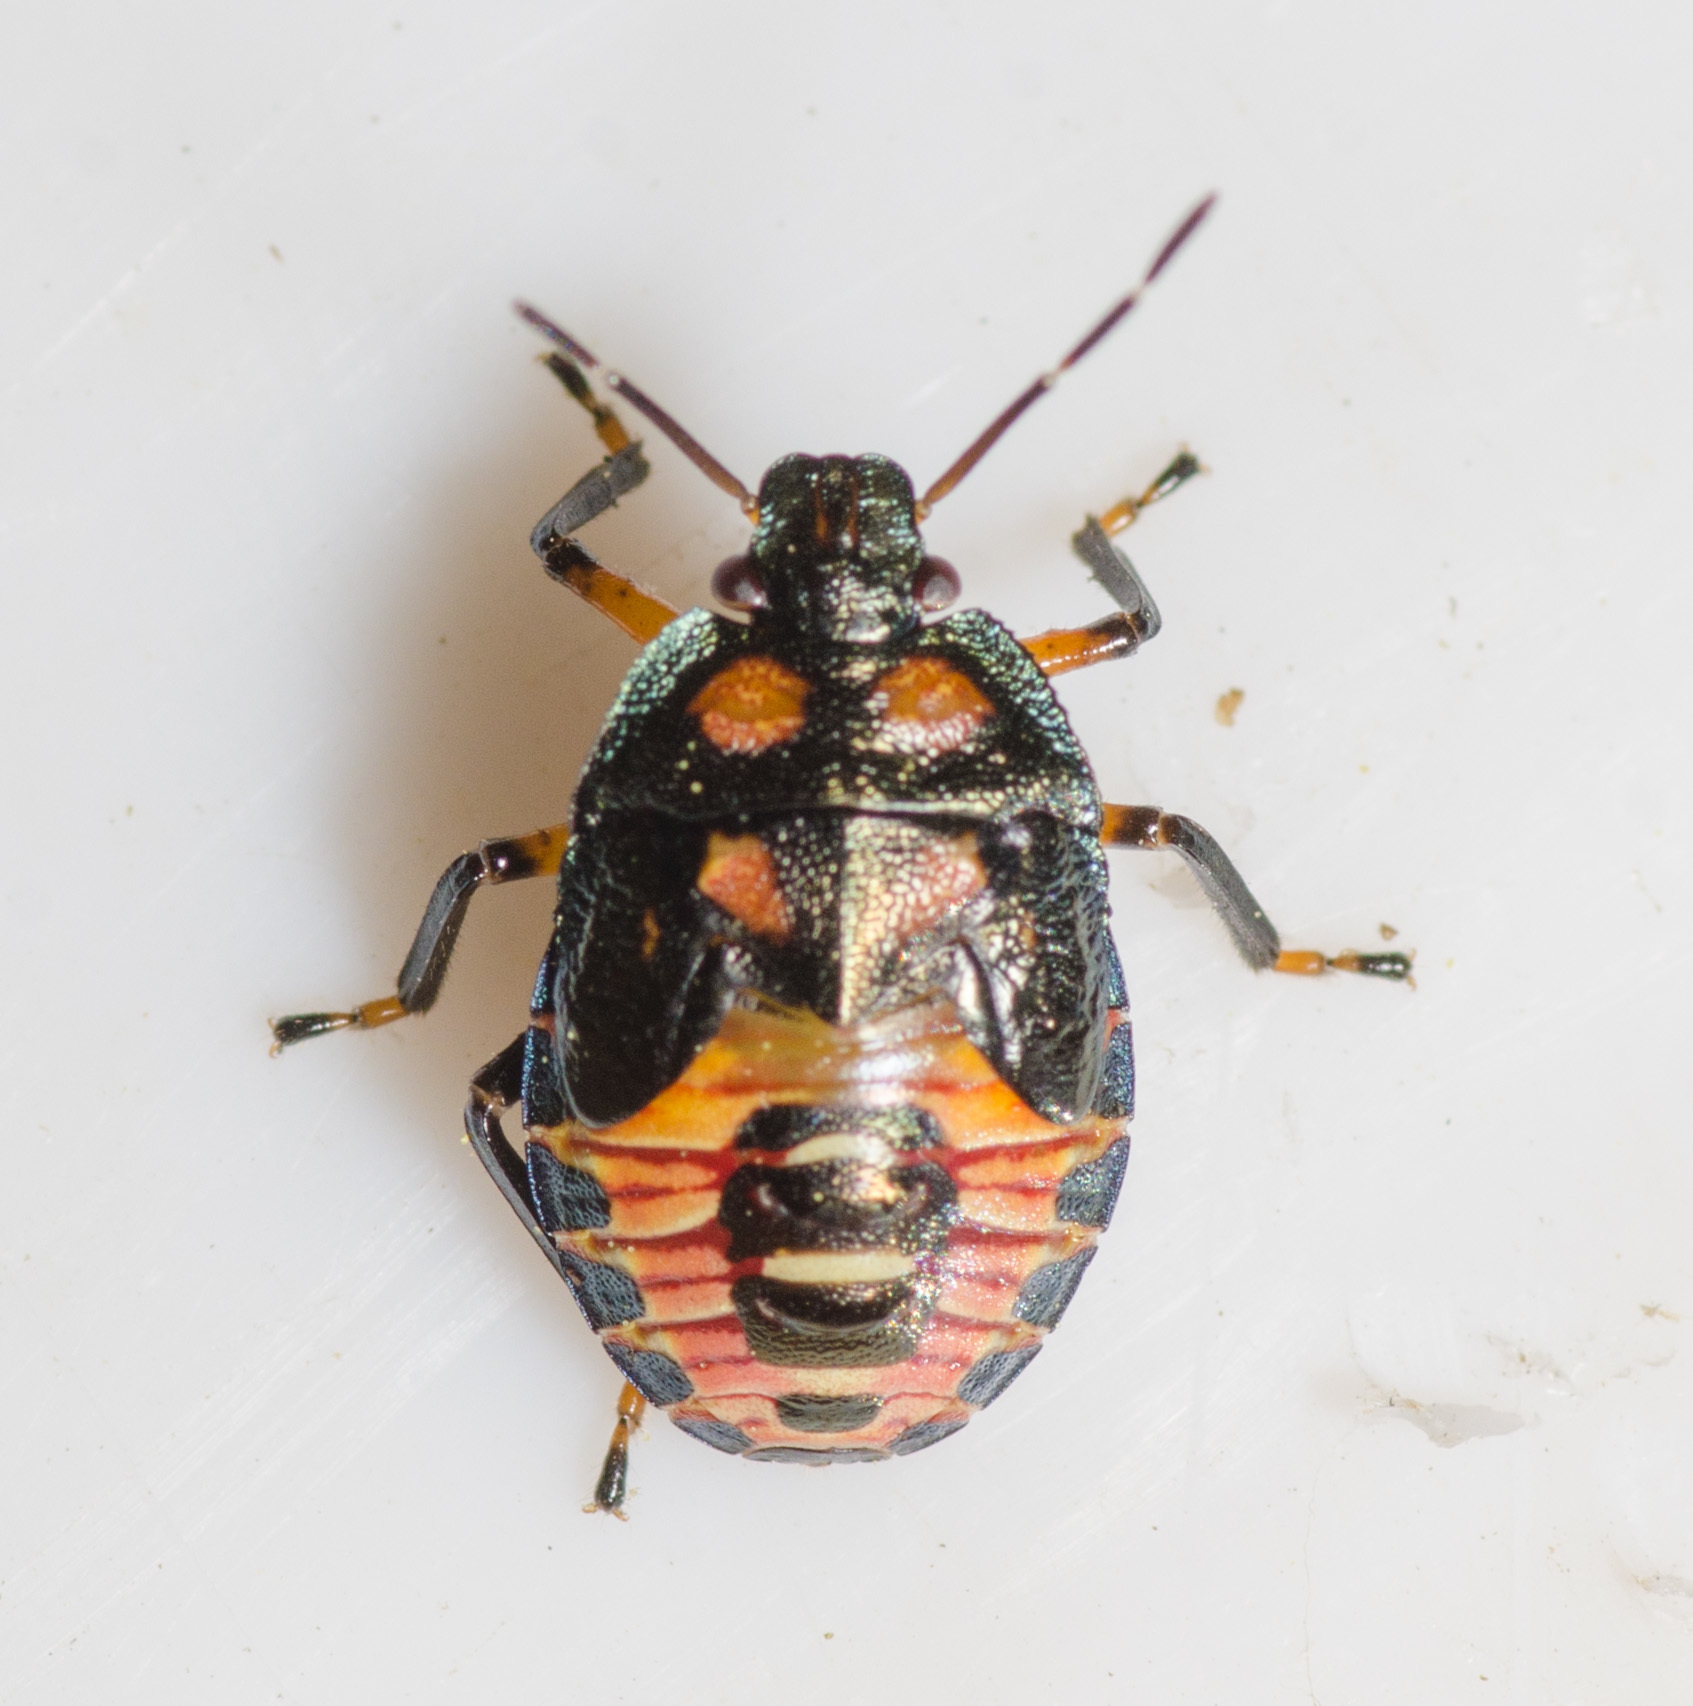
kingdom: Animalia
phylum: Arthropoda
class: Insecta
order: Hemiptera
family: Pentatomidae
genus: Podisus
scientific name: Podisus
